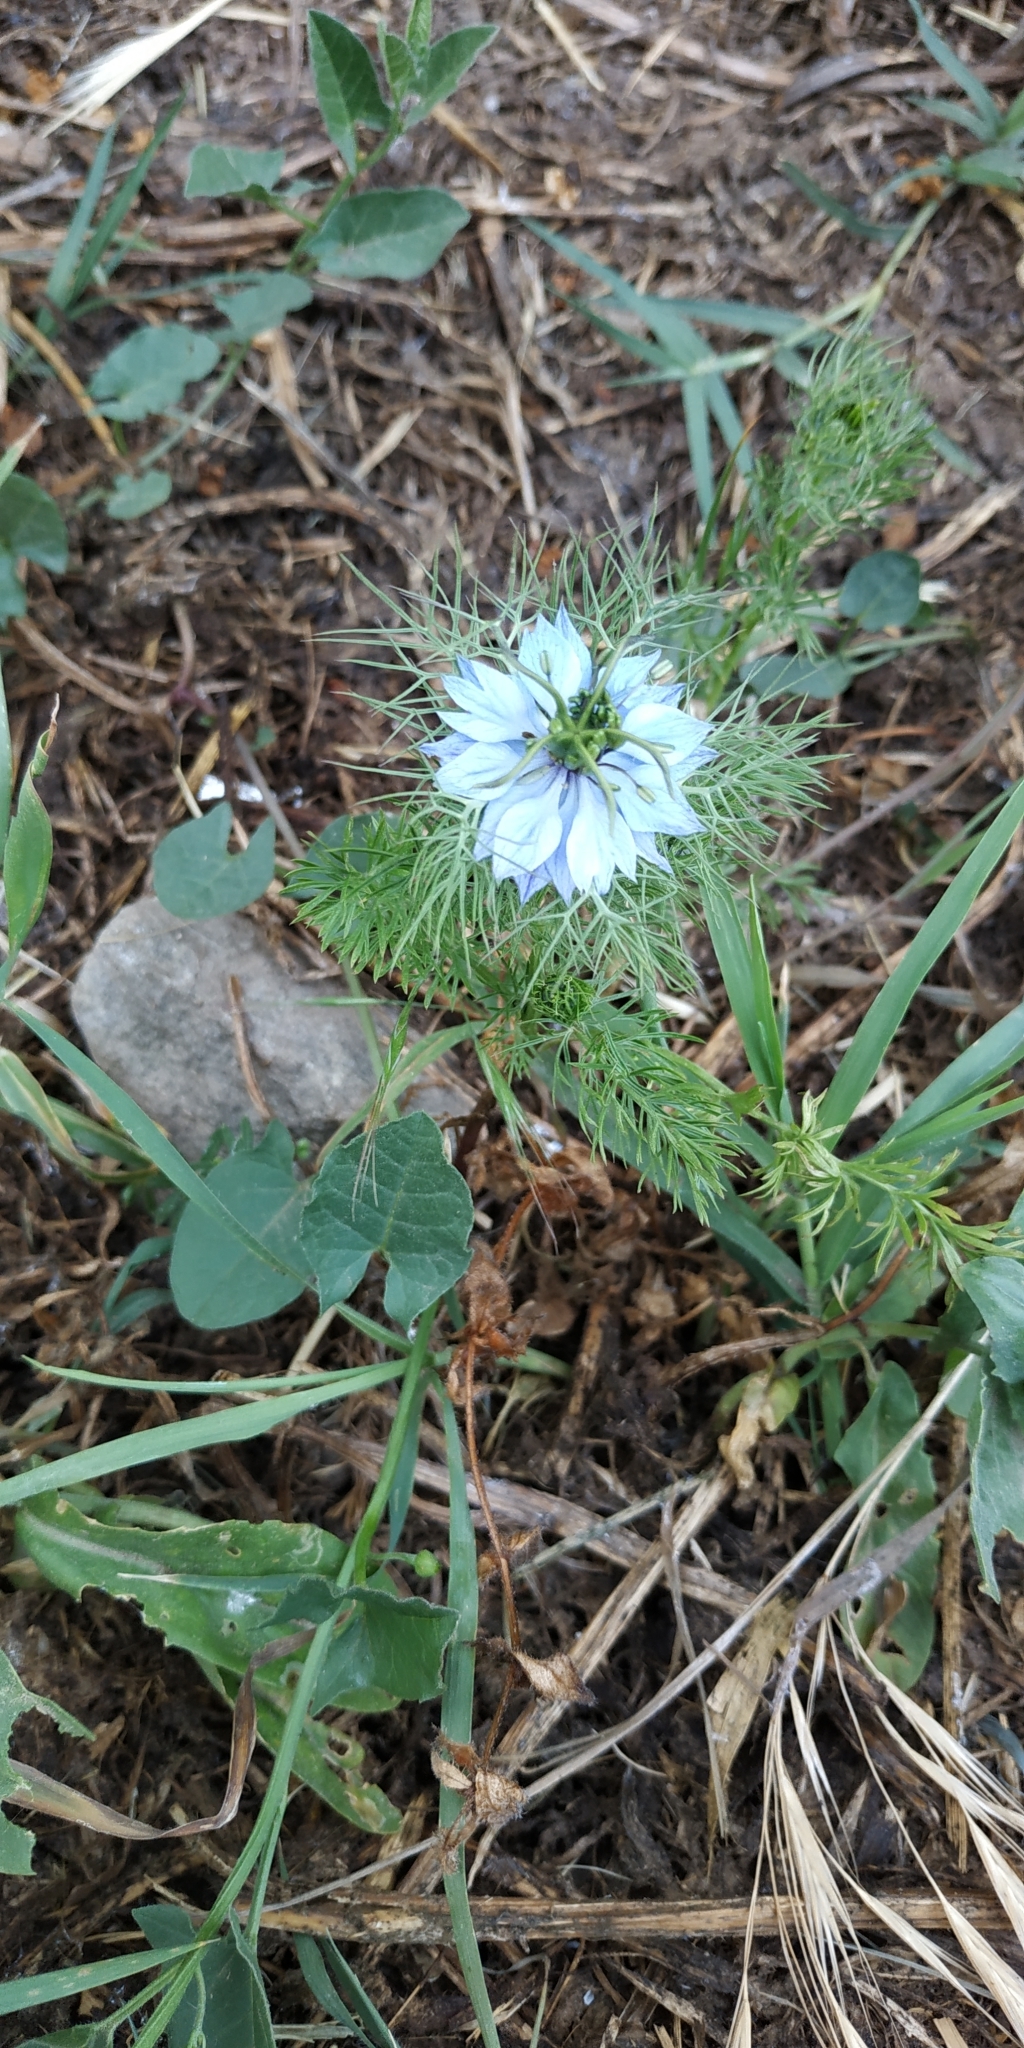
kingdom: Plantae
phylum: Tracheophyta
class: Magnoliopsida
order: Ranunculales
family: Ranunculaceae
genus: Nigella
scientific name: Nigella arvensis
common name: Wild fennel-flower
